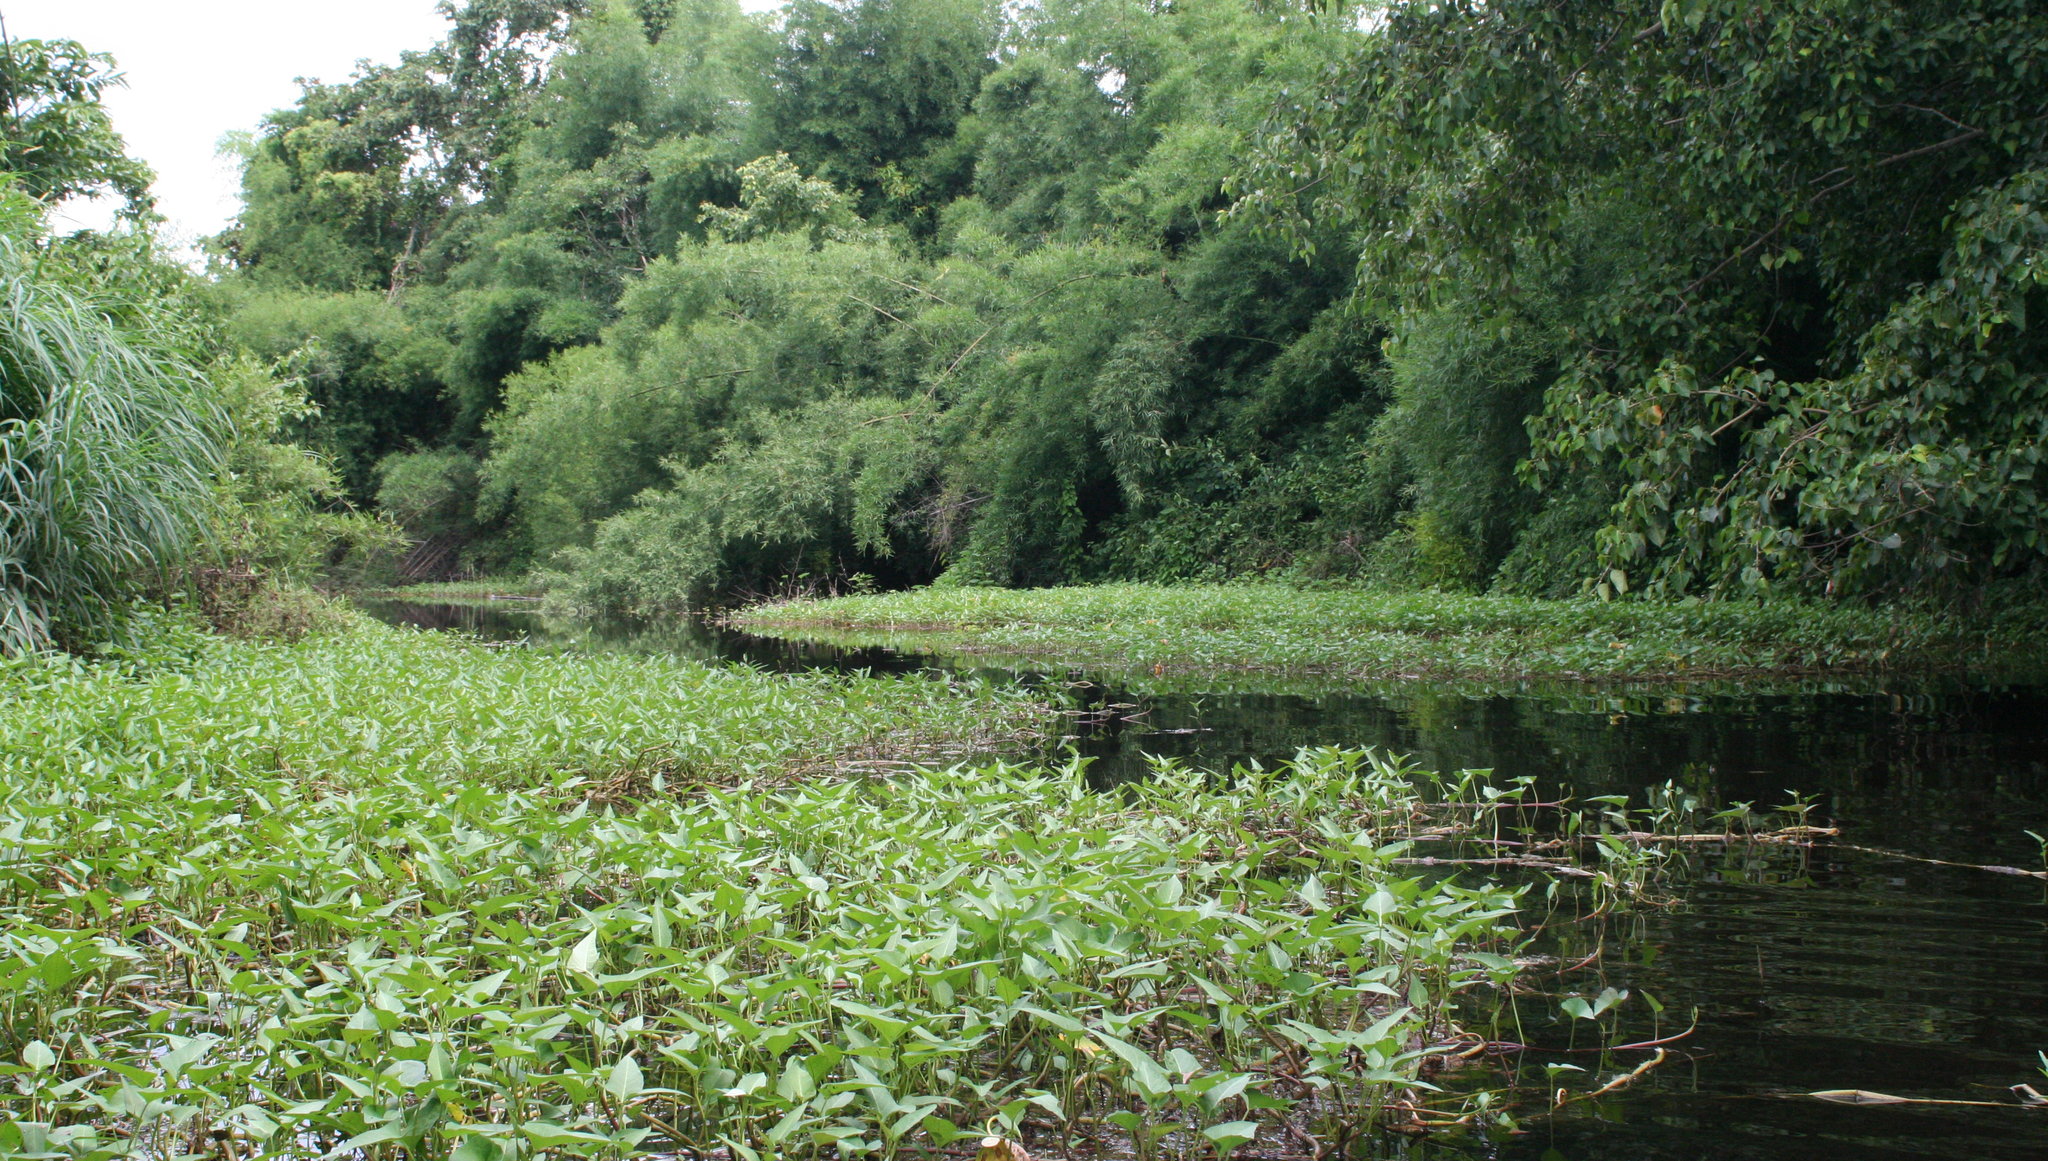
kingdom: Plantae
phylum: Tracheophyta
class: Magnoliopsida
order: Solanales
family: Convolvulaceae
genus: Ipomoea
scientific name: Ipomoea aquatica
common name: Swamp morning-glory
